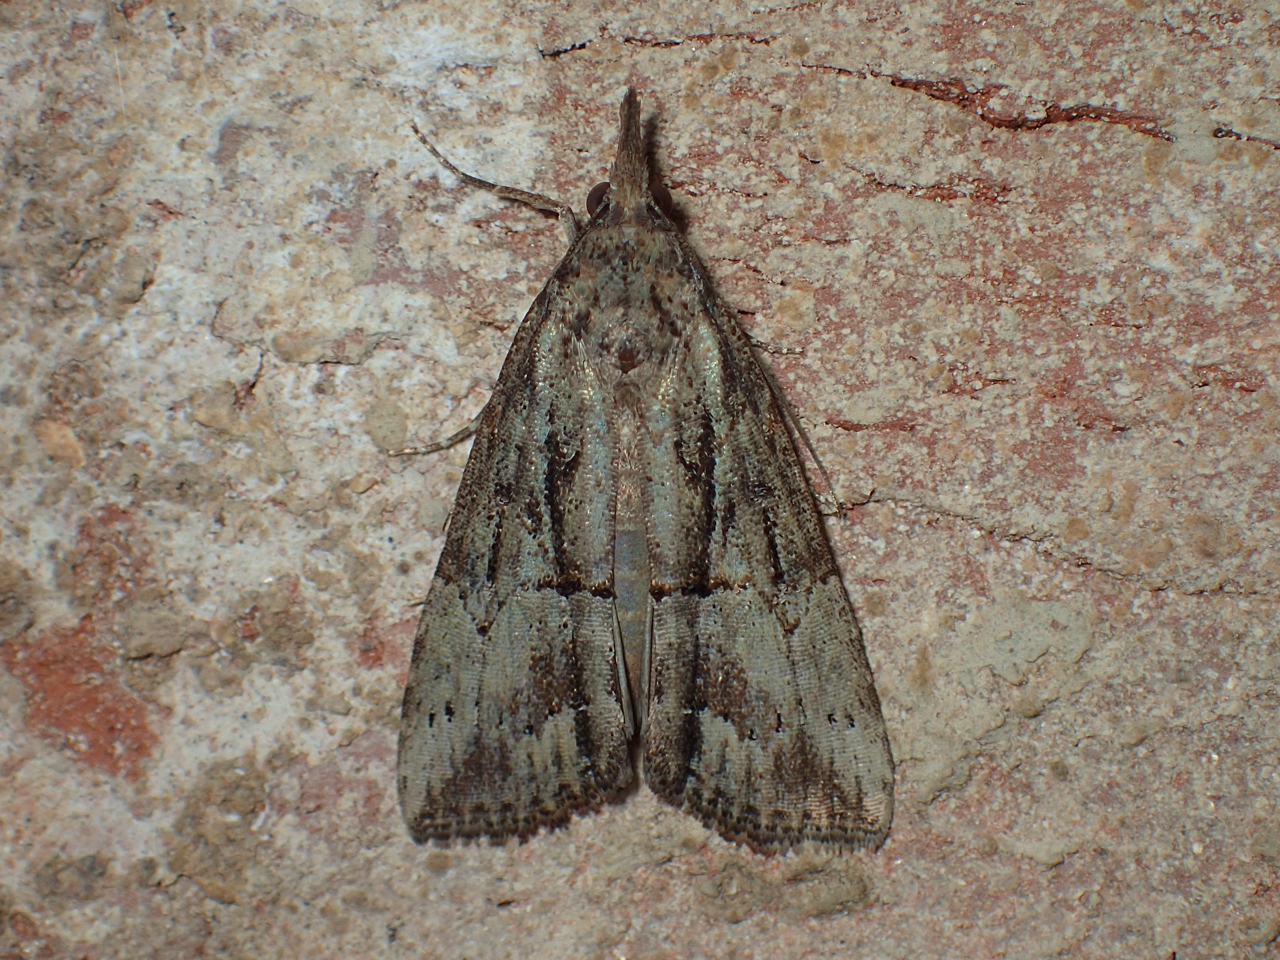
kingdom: Animalia
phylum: Arthropoda
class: Insecta
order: Lepidoptera
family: Erebidae
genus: Hypena
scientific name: Hypena scabra
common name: Green cloverworm
